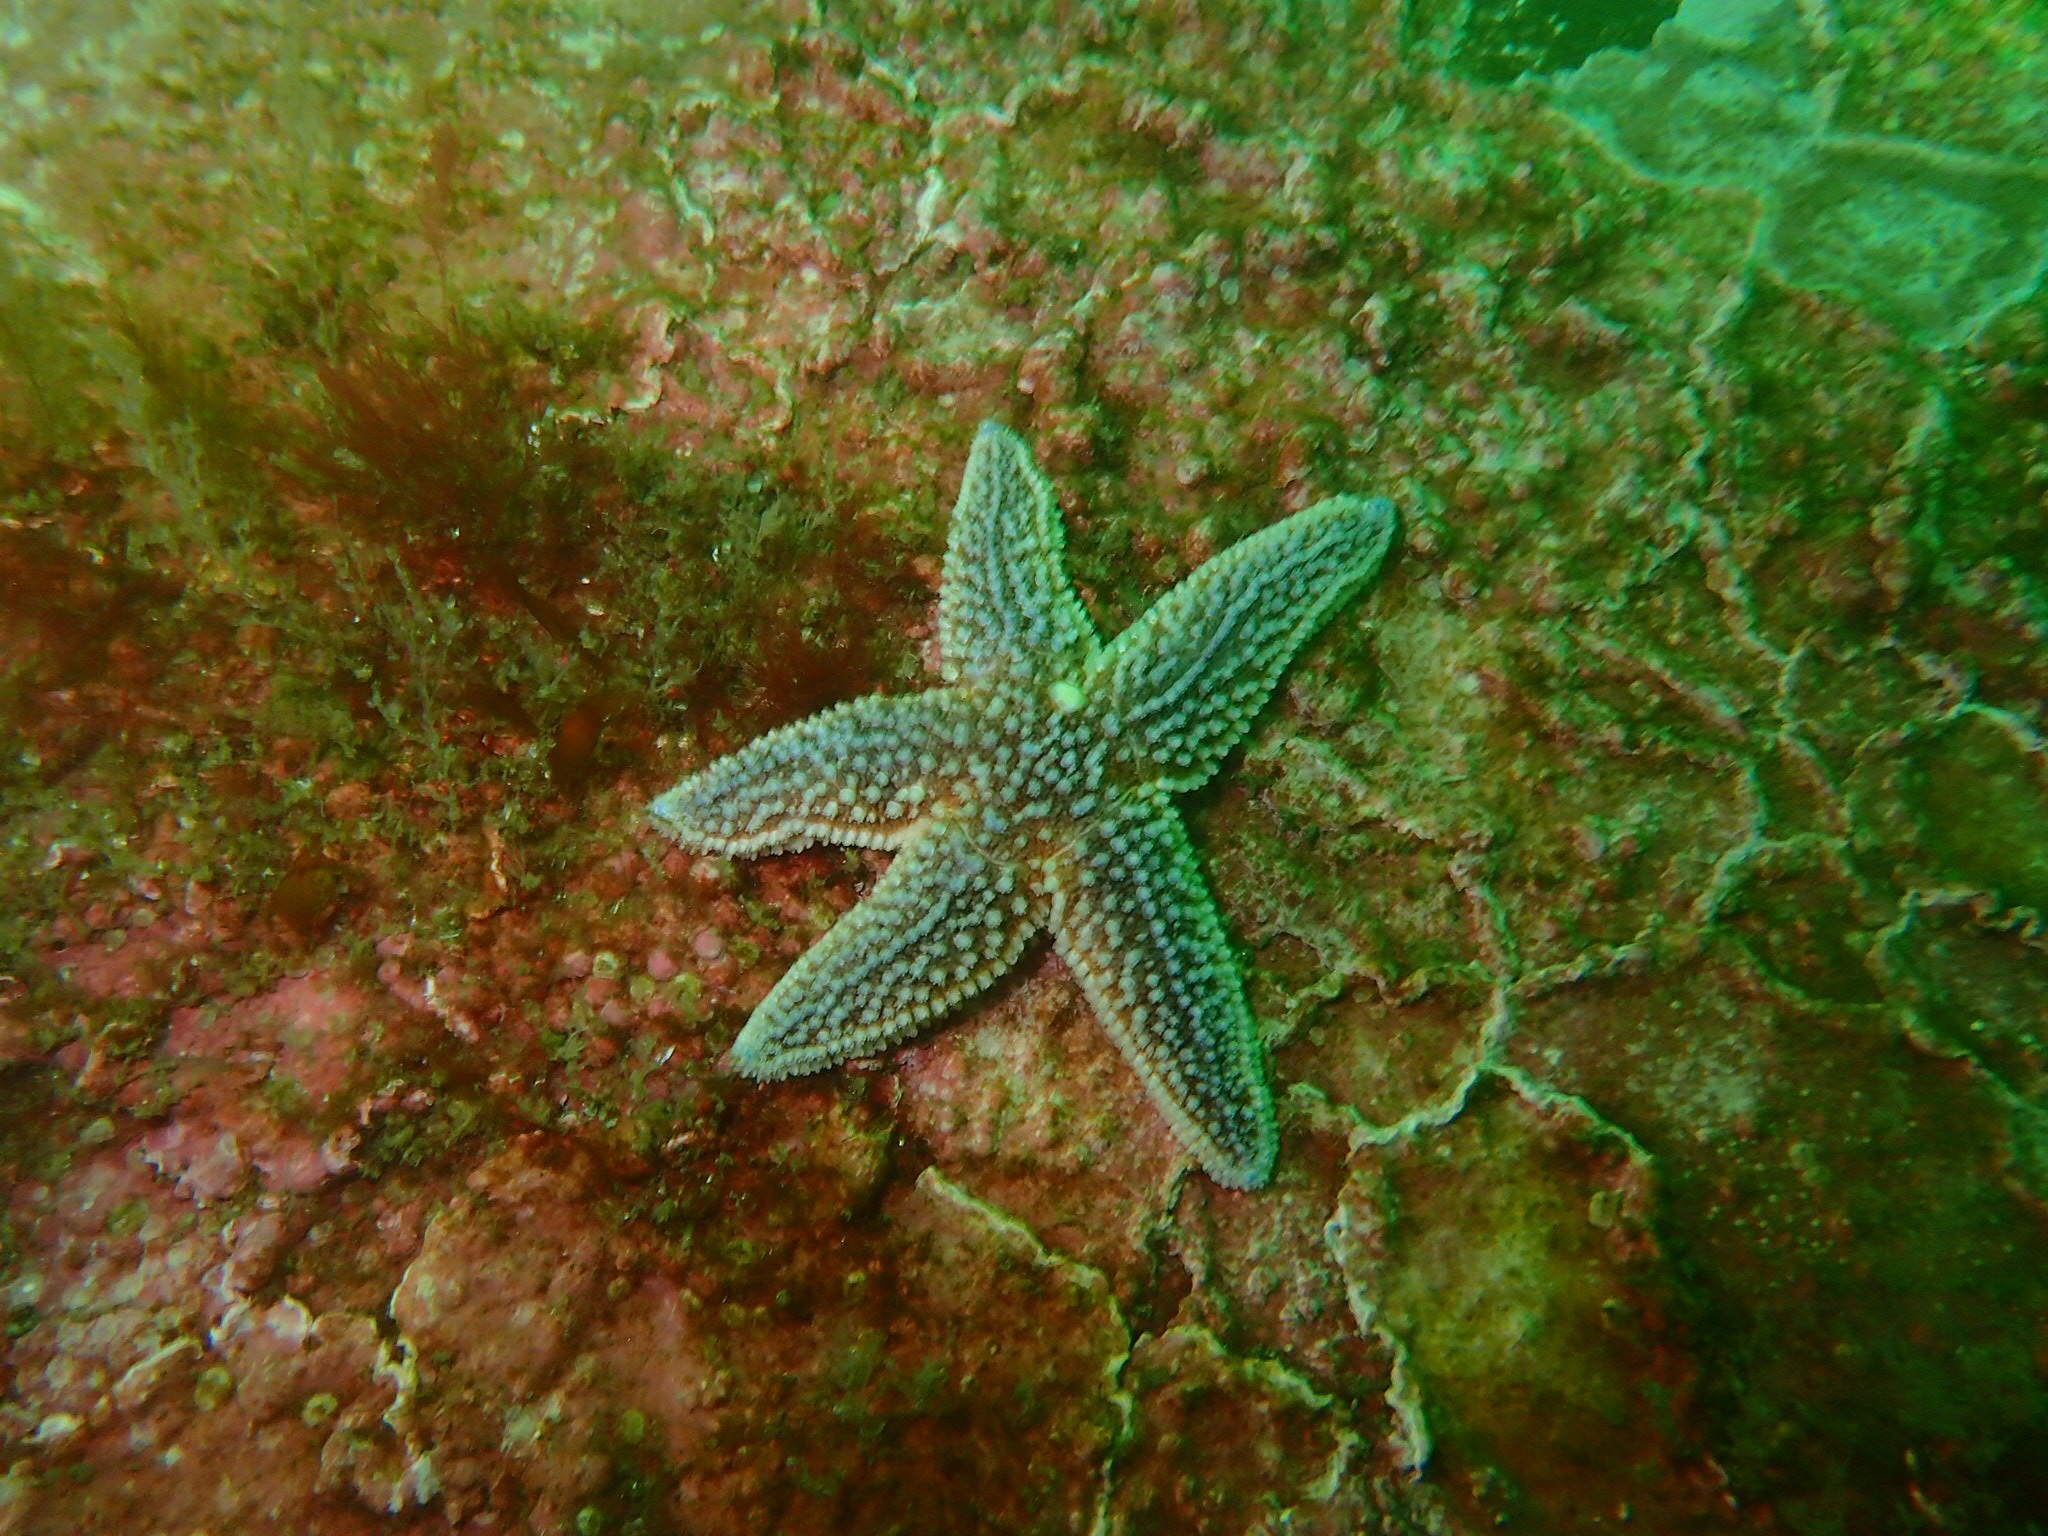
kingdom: Animalia
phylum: Echinodermata
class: Asteroidea
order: Forcipulatida
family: Asteriidae
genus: Asterias
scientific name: Asterias forbesi
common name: Forbes's sea star
